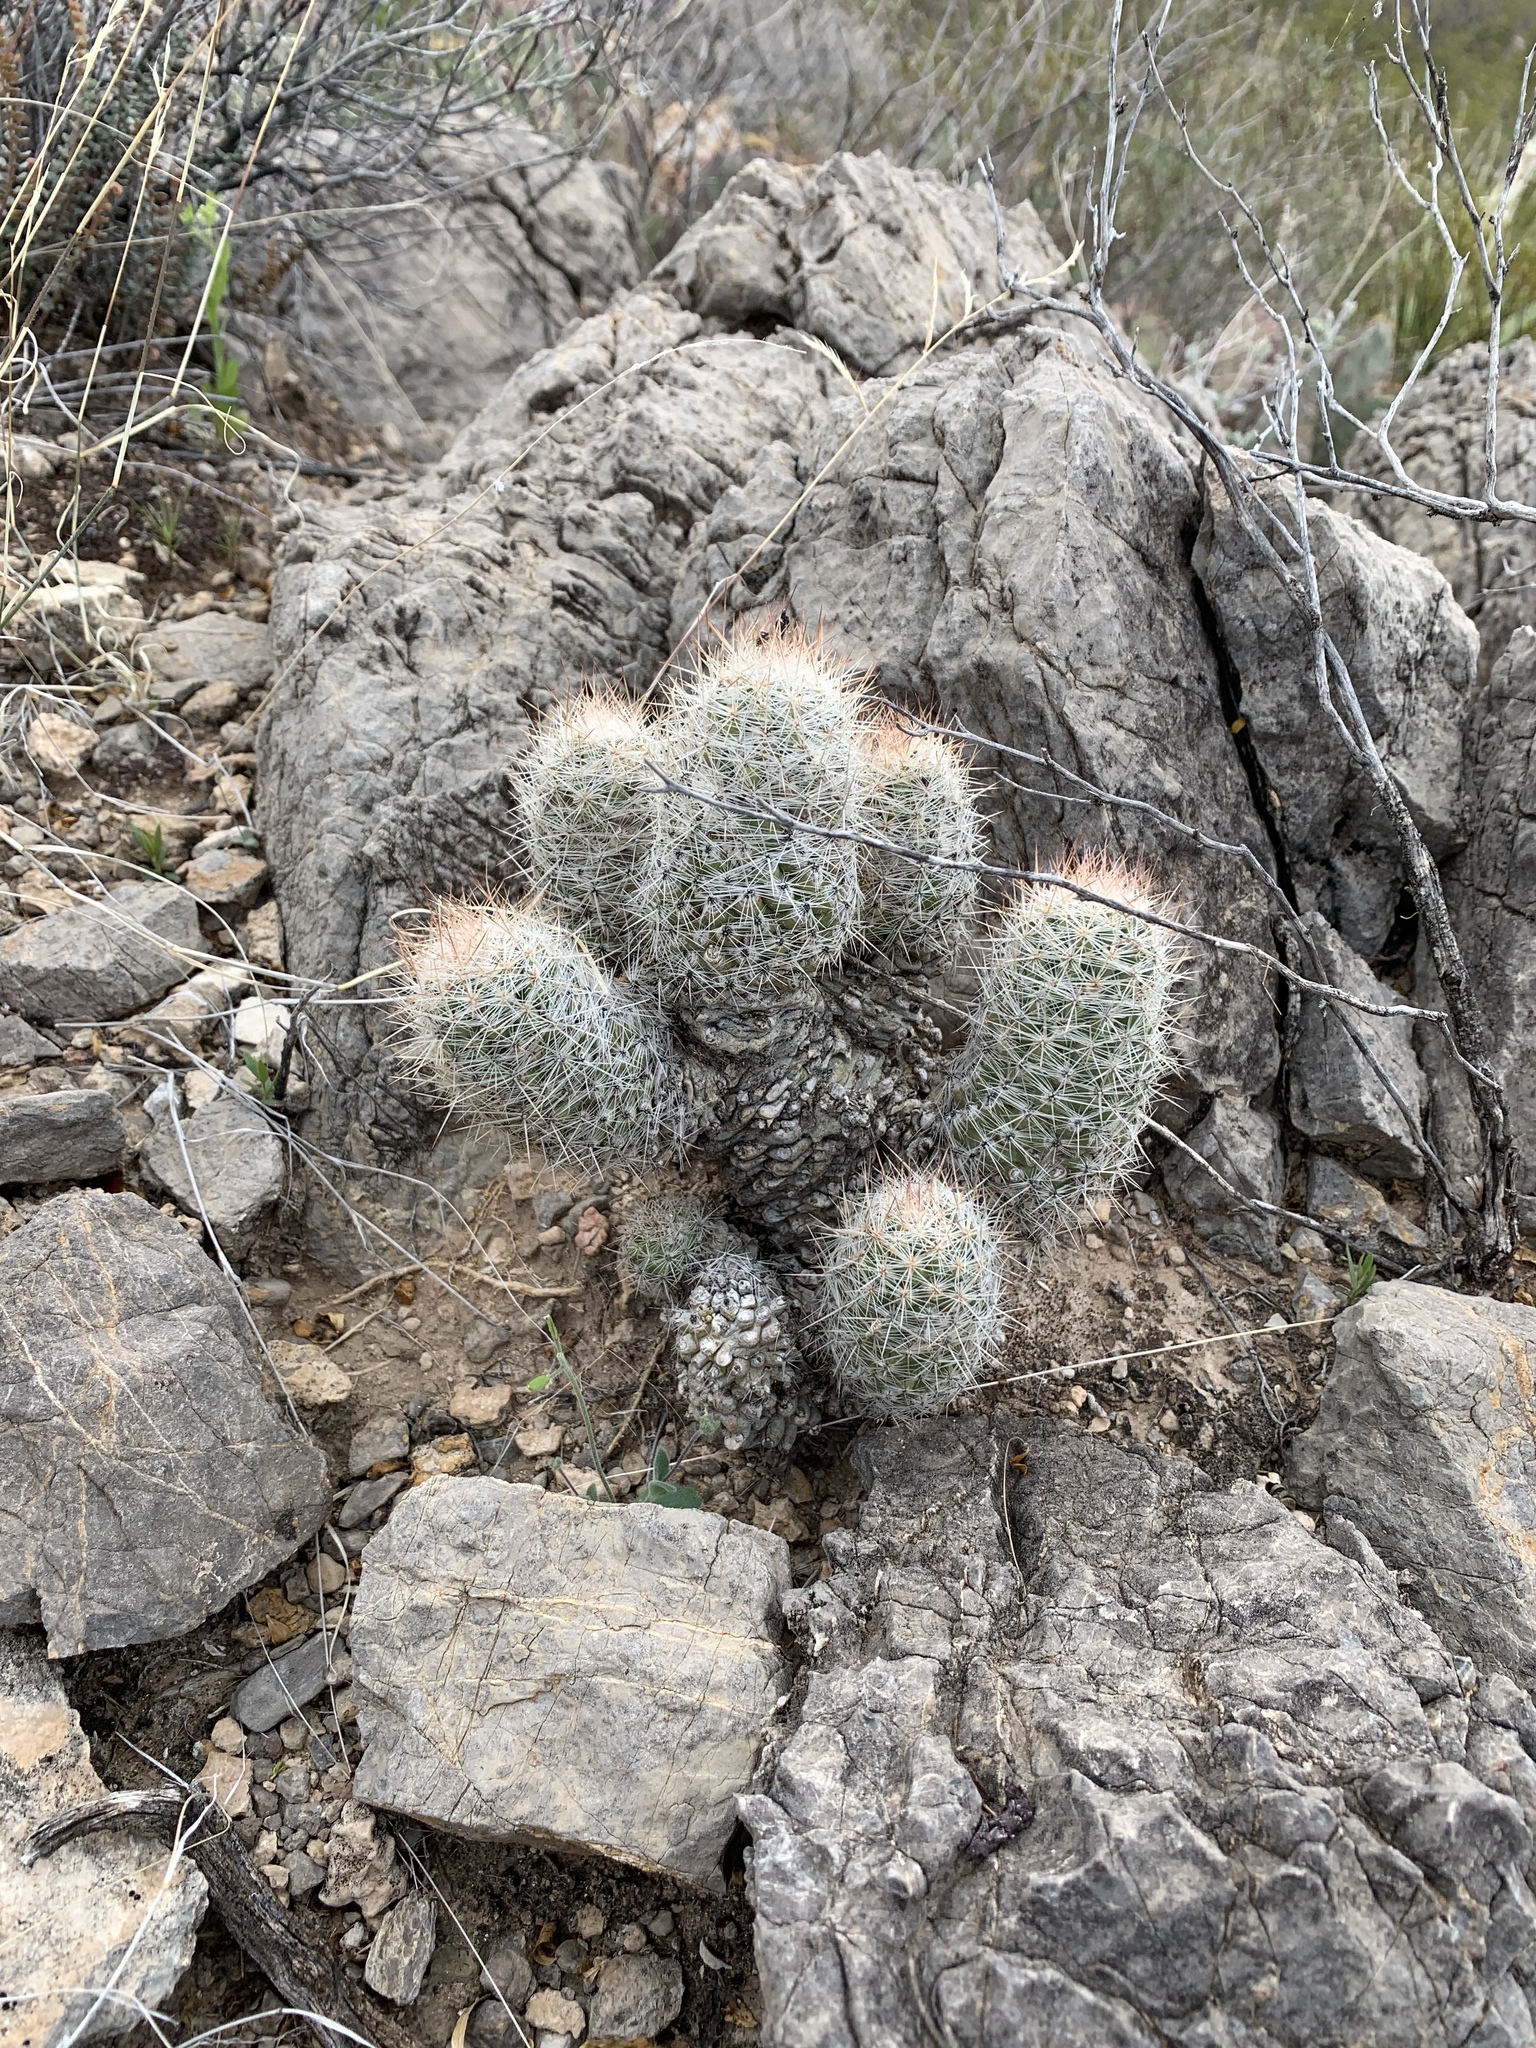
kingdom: Plantae
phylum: Tracheophyta
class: Magnoliopsida
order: Caryophyllales
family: Cactaceae
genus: Pelecyphora
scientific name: Pelecyphora tuberculosa
